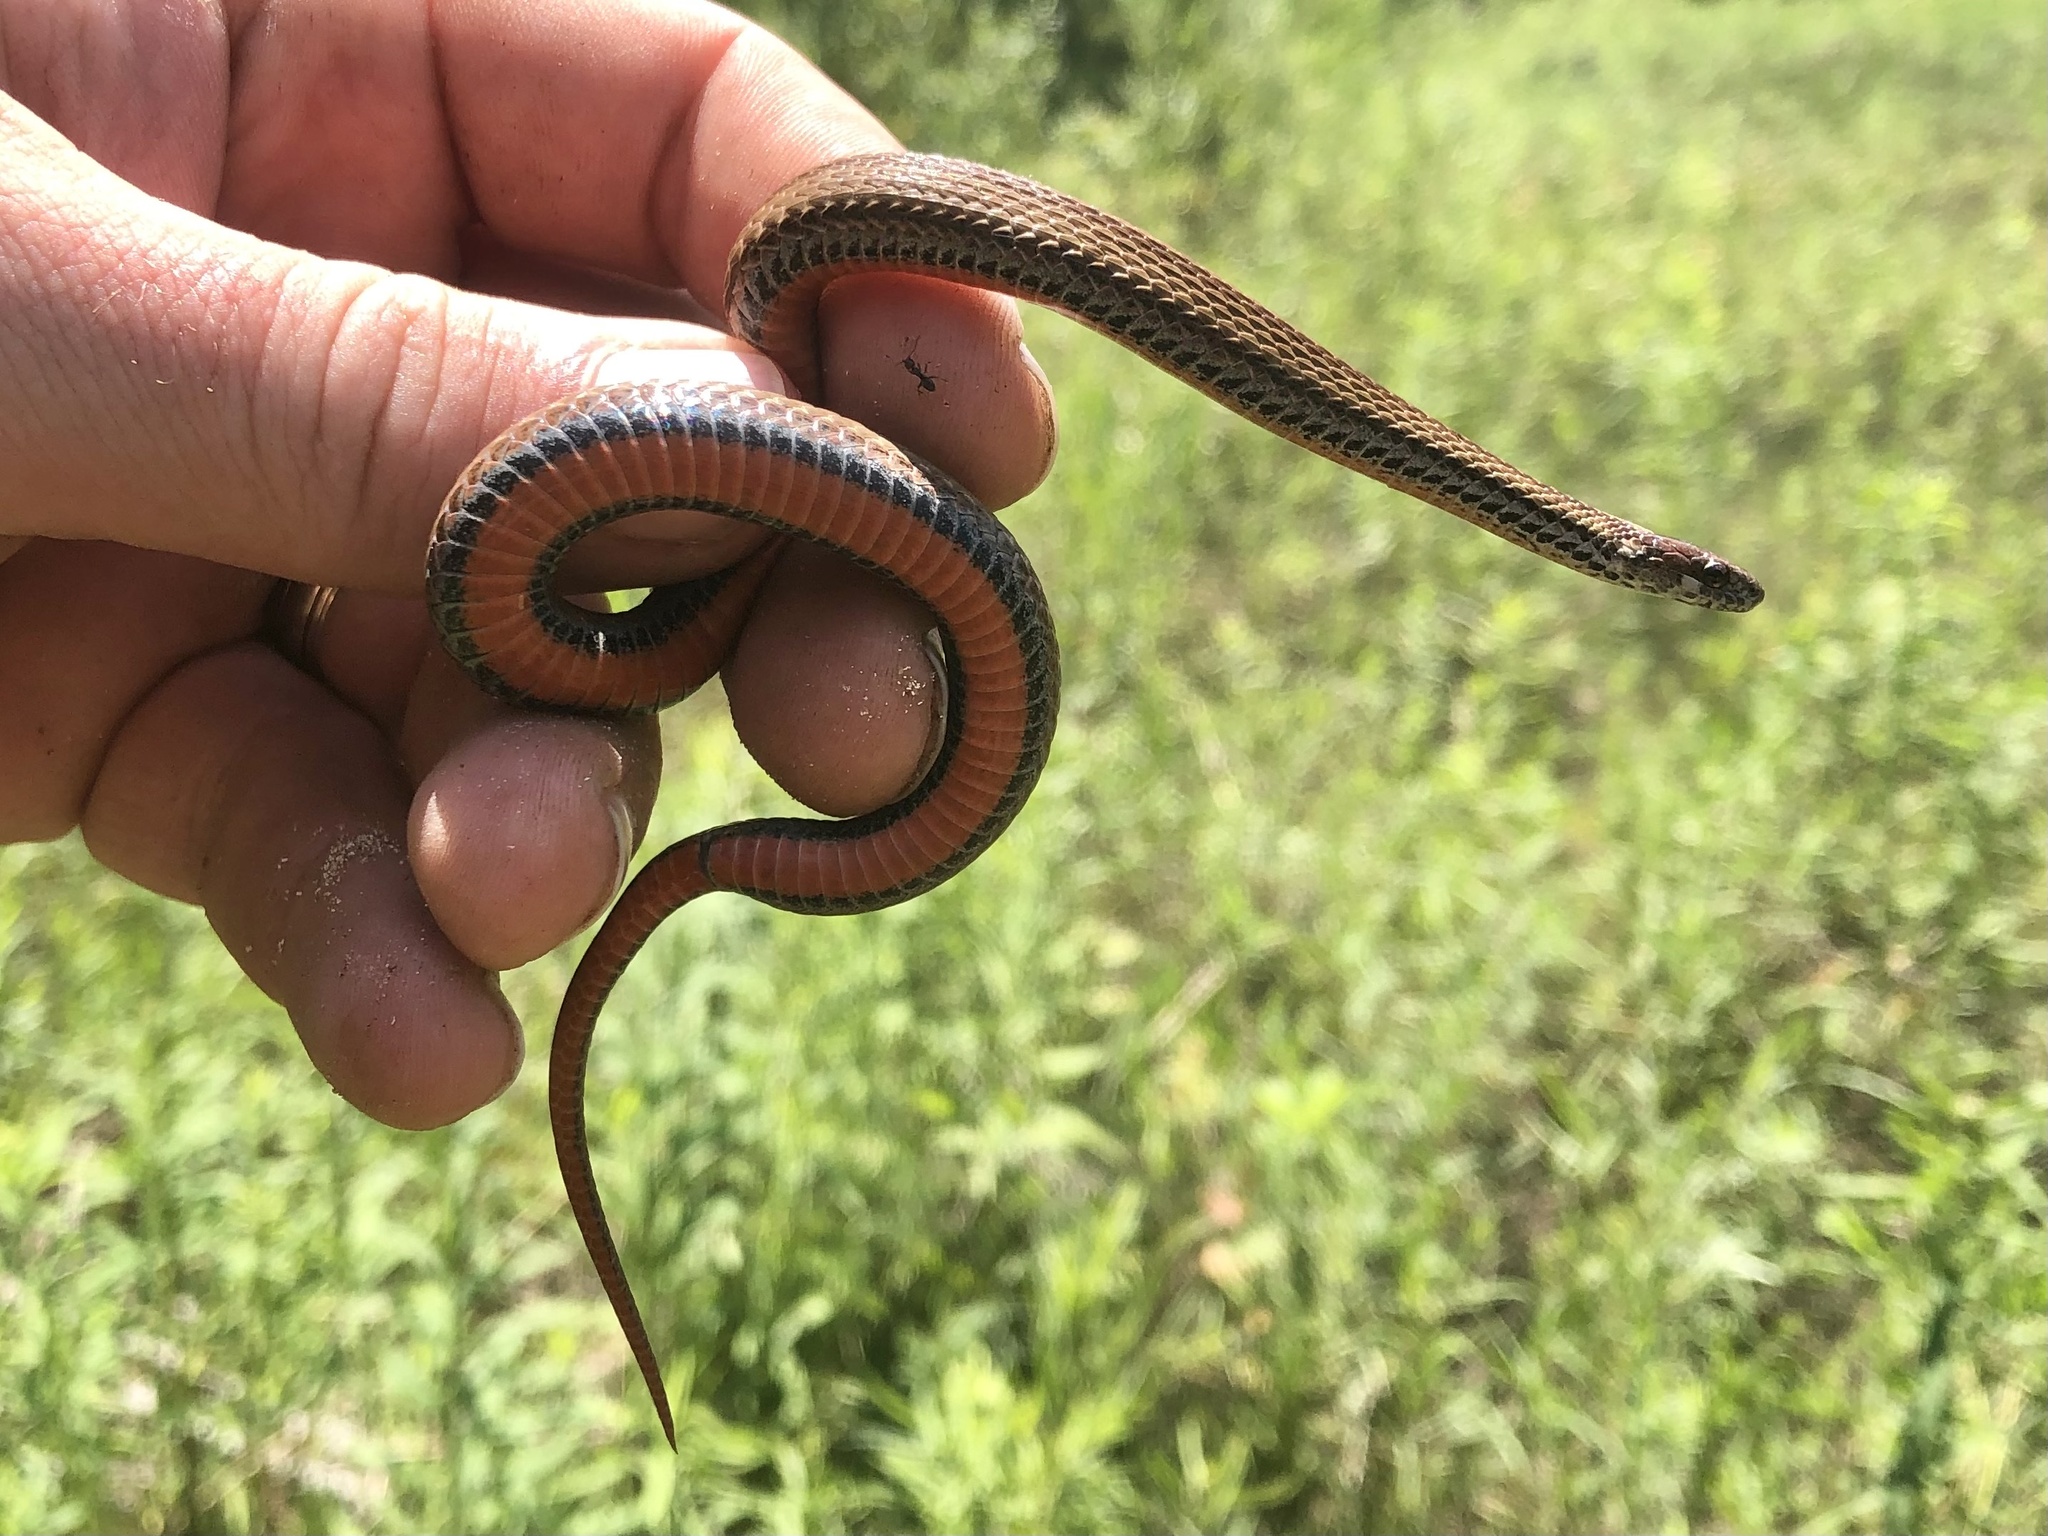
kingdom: Animalia
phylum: Chordata
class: Squamata
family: Colubridae
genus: Storeria
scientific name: Storeria occipitomaculata
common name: Redbelly snake
